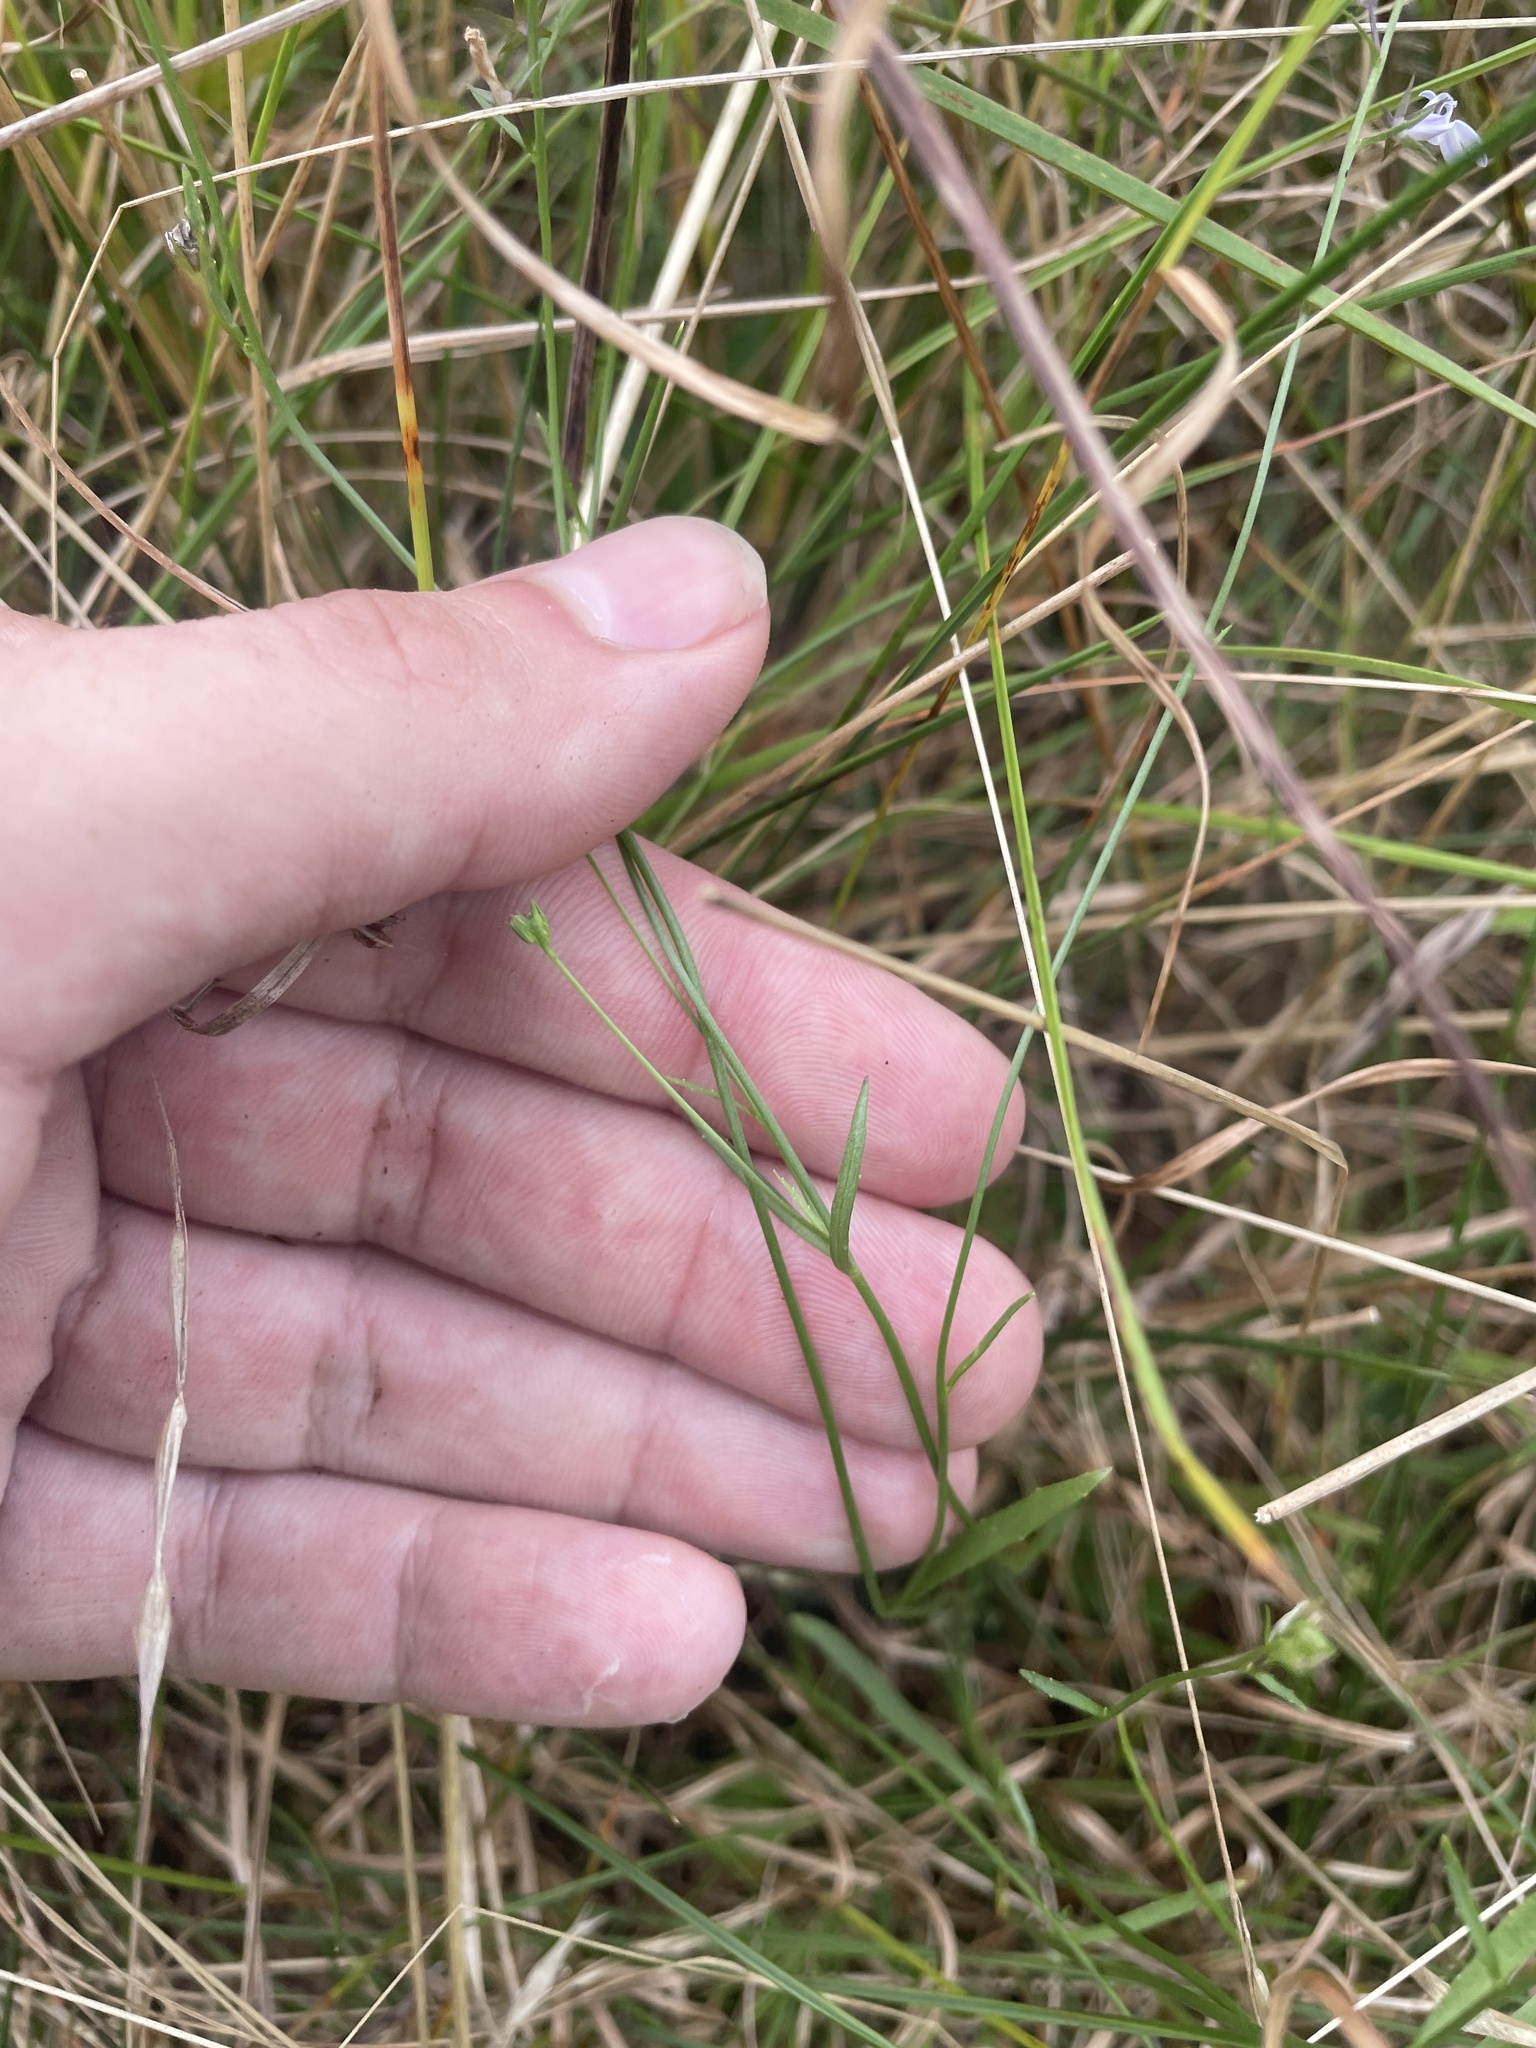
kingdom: Plantae
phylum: Tracheophyta
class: Magnoliopsida
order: Asterales
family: Campanulaceae
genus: Lobelia
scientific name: Lobelia nuttallii
